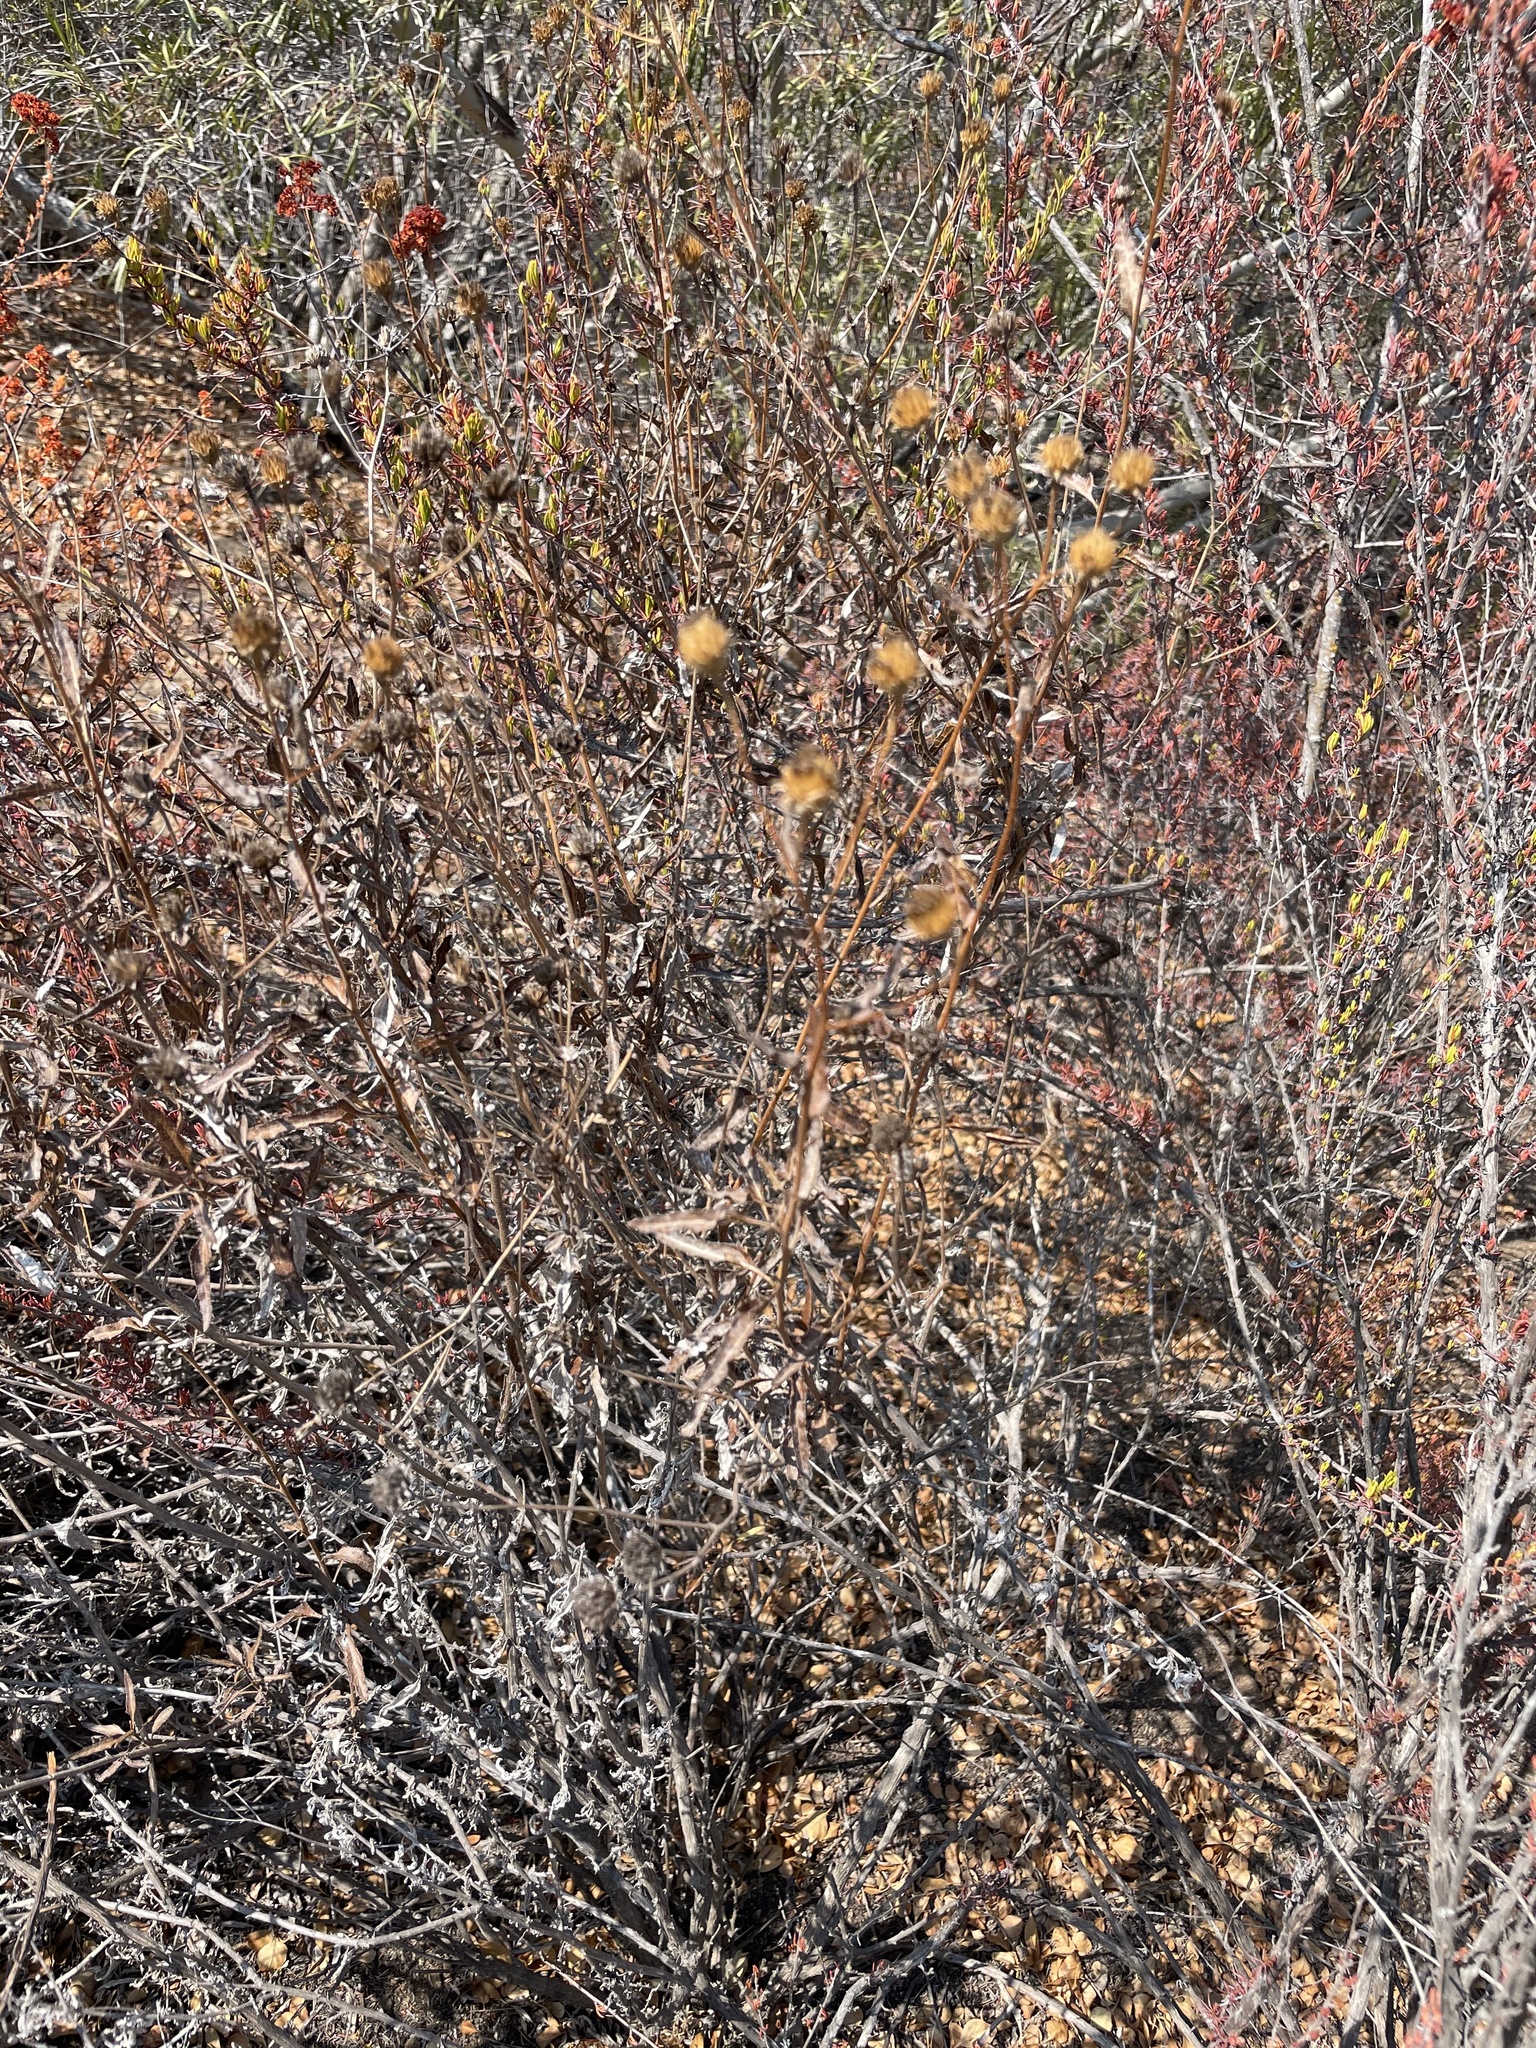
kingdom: Plantae
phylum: Tracheophyta
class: Magnoliopsida
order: Asterales
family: Asteraceae
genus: Bahiopsis
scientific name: Bahiopsis laciniata
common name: San diego county viguiera
